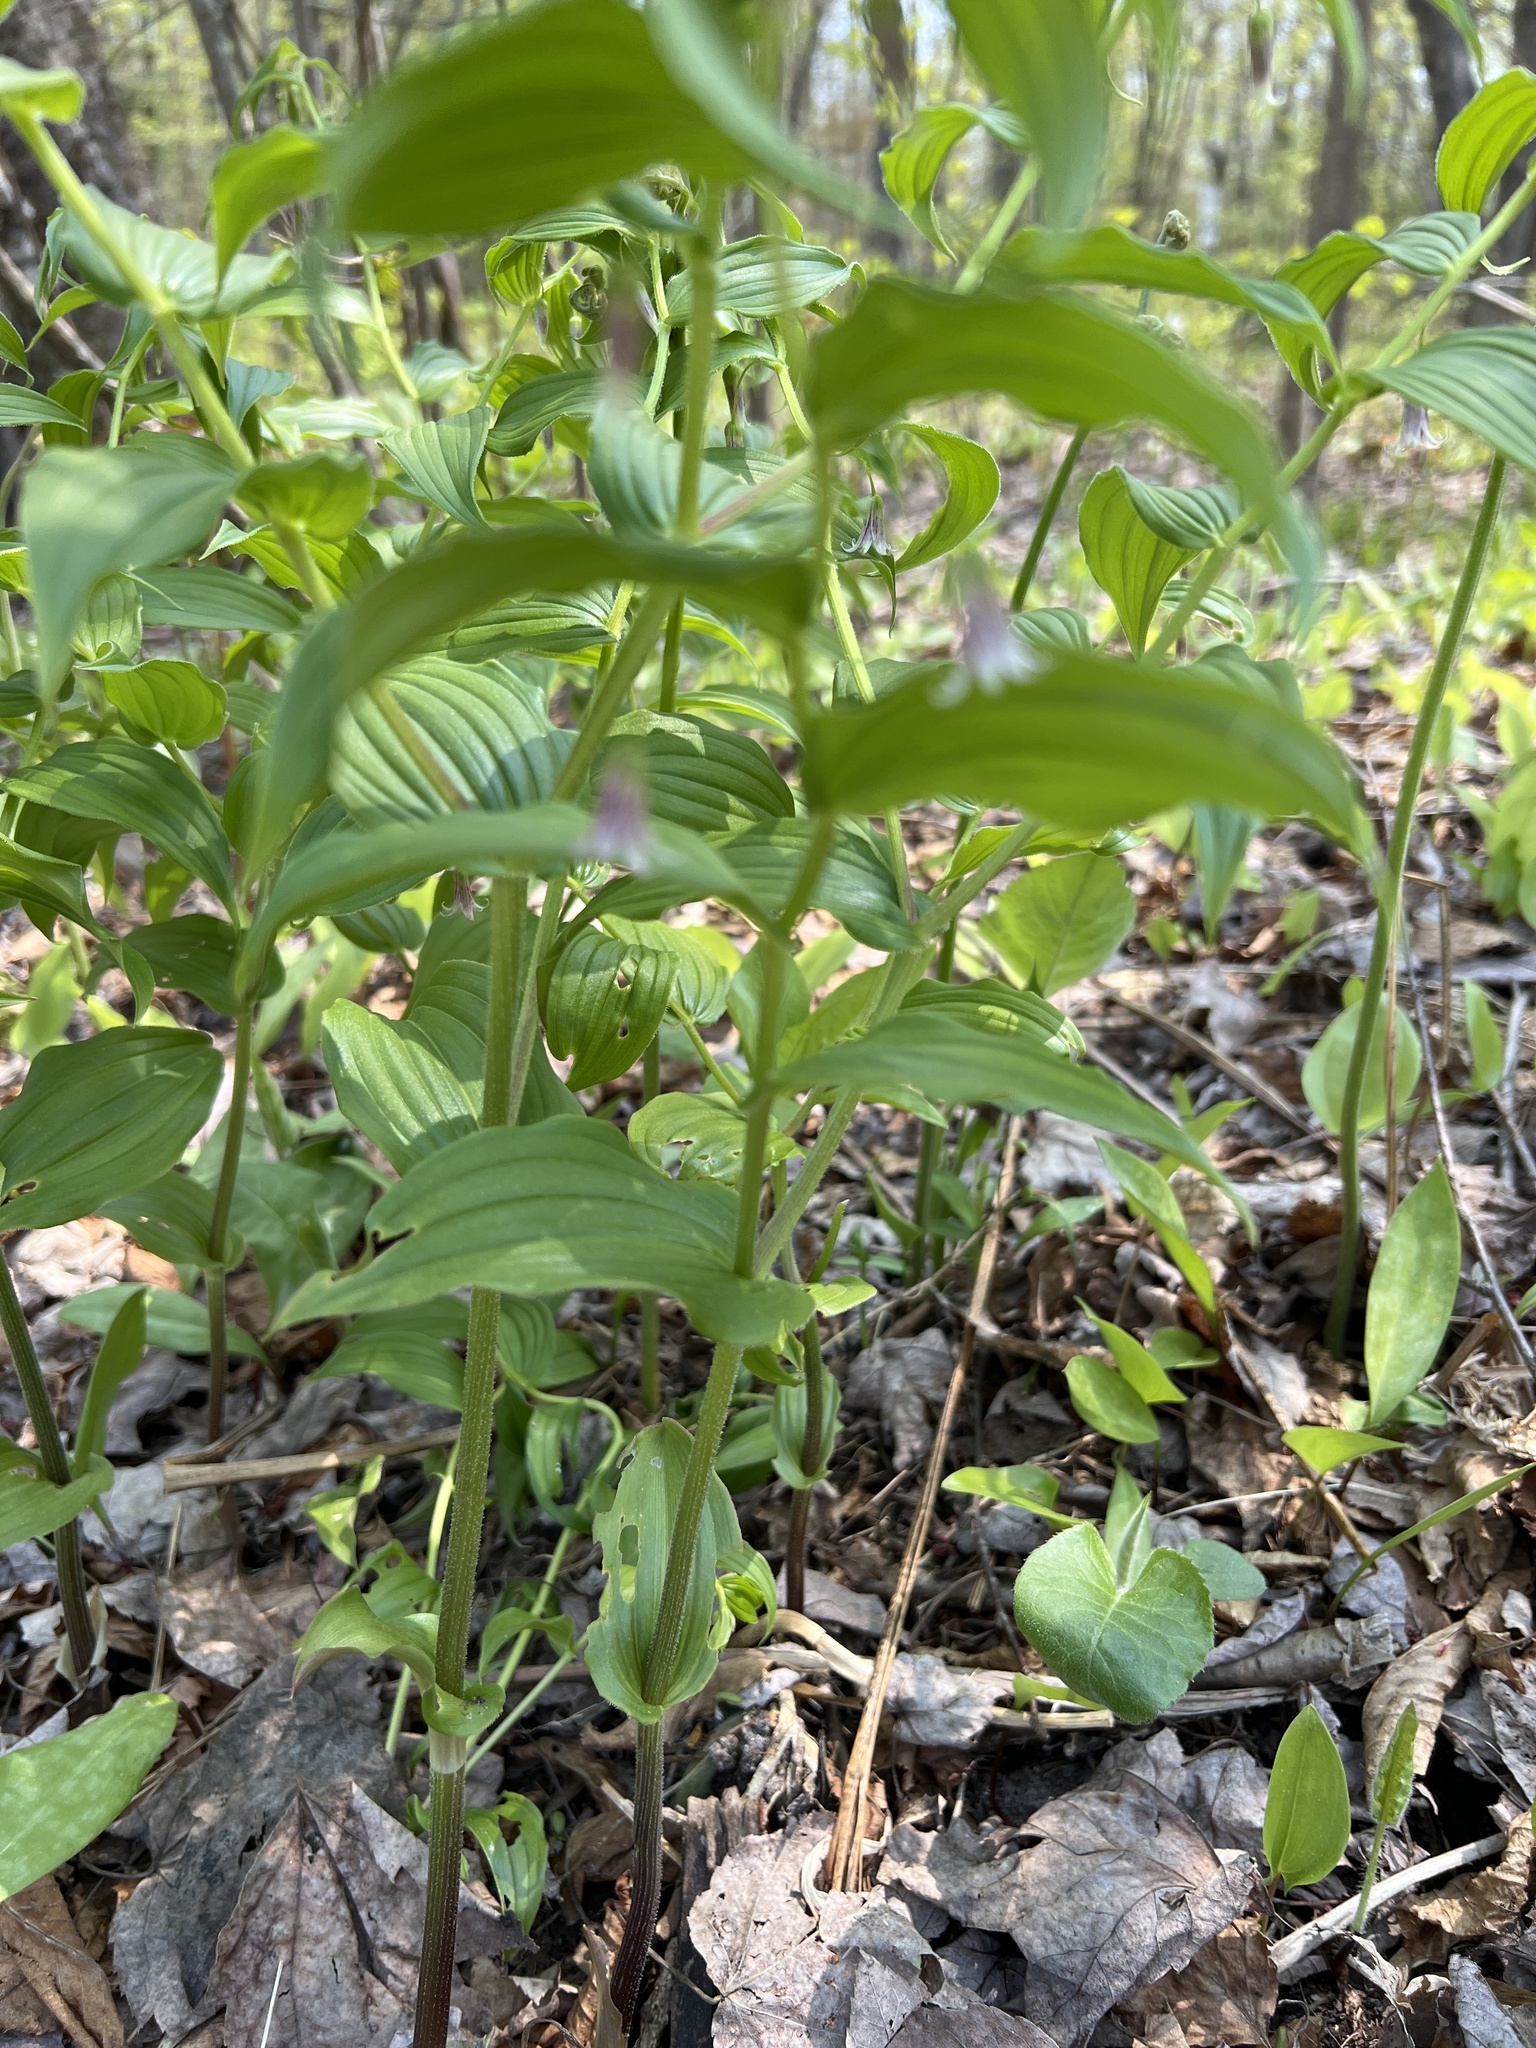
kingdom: Plantae
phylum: Tracheophyta
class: Liliopsida
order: Liliales
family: Liliaceae
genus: Streptopus
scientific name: Streptopus lanceolatus
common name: Rose mandarin
